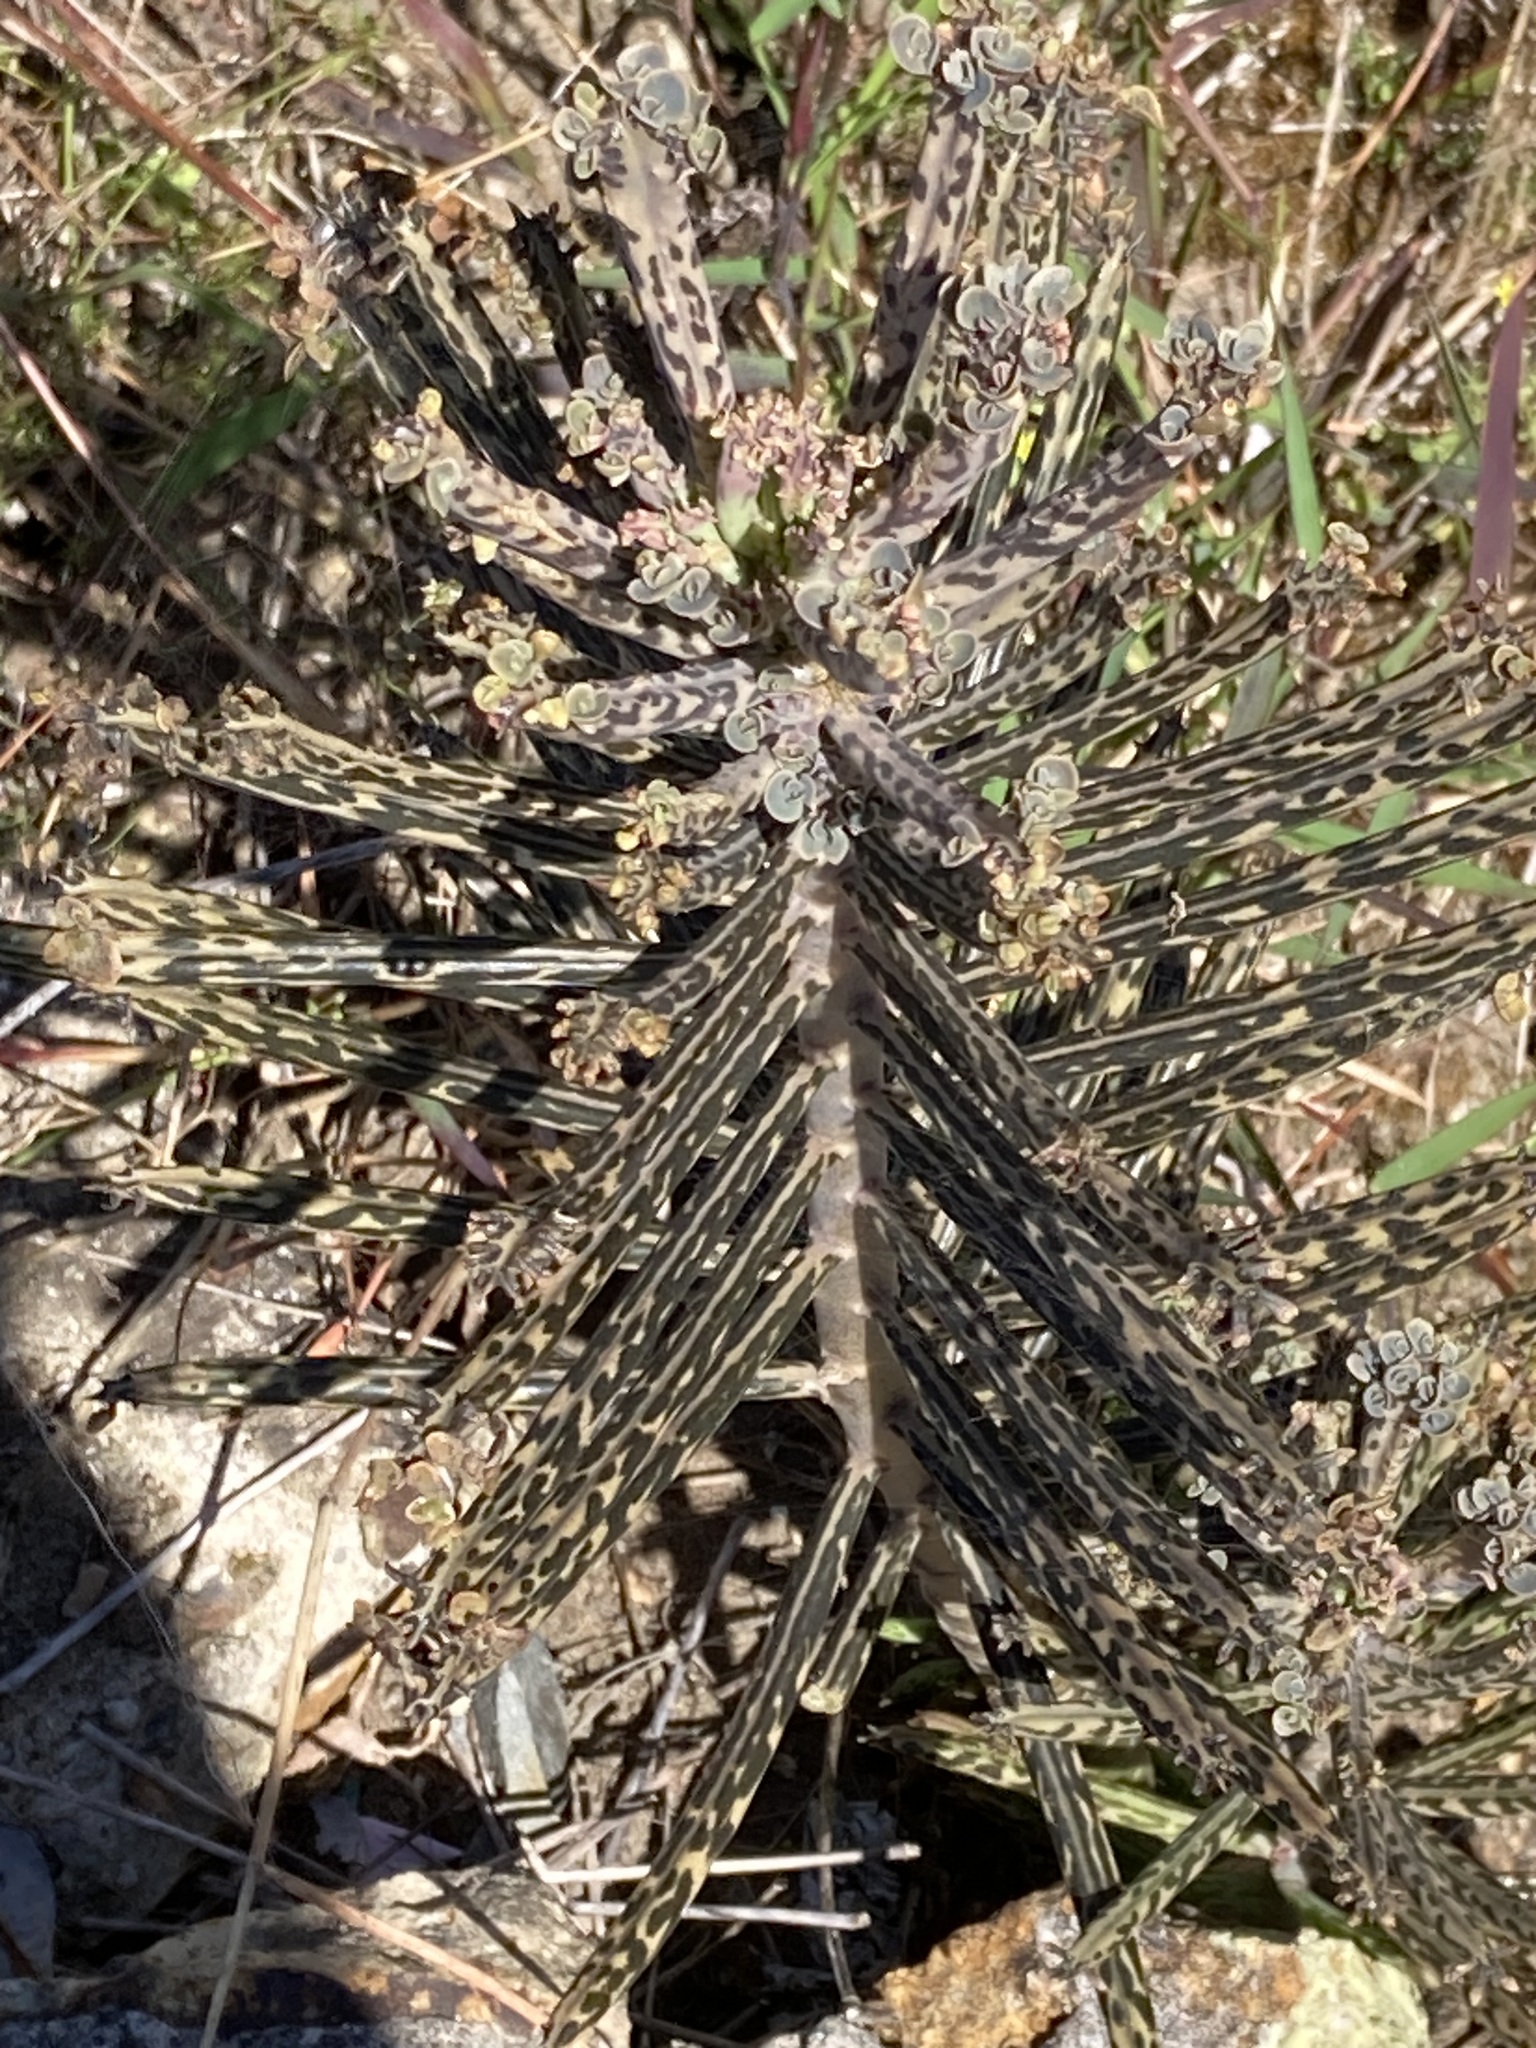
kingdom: Plantae
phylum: Tracheophyta
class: Magnoliopsida
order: Saxifragales
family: Crassulaceae
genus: Kalanchoe
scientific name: Kalanchoe delagoensis
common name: Chandelier plant
